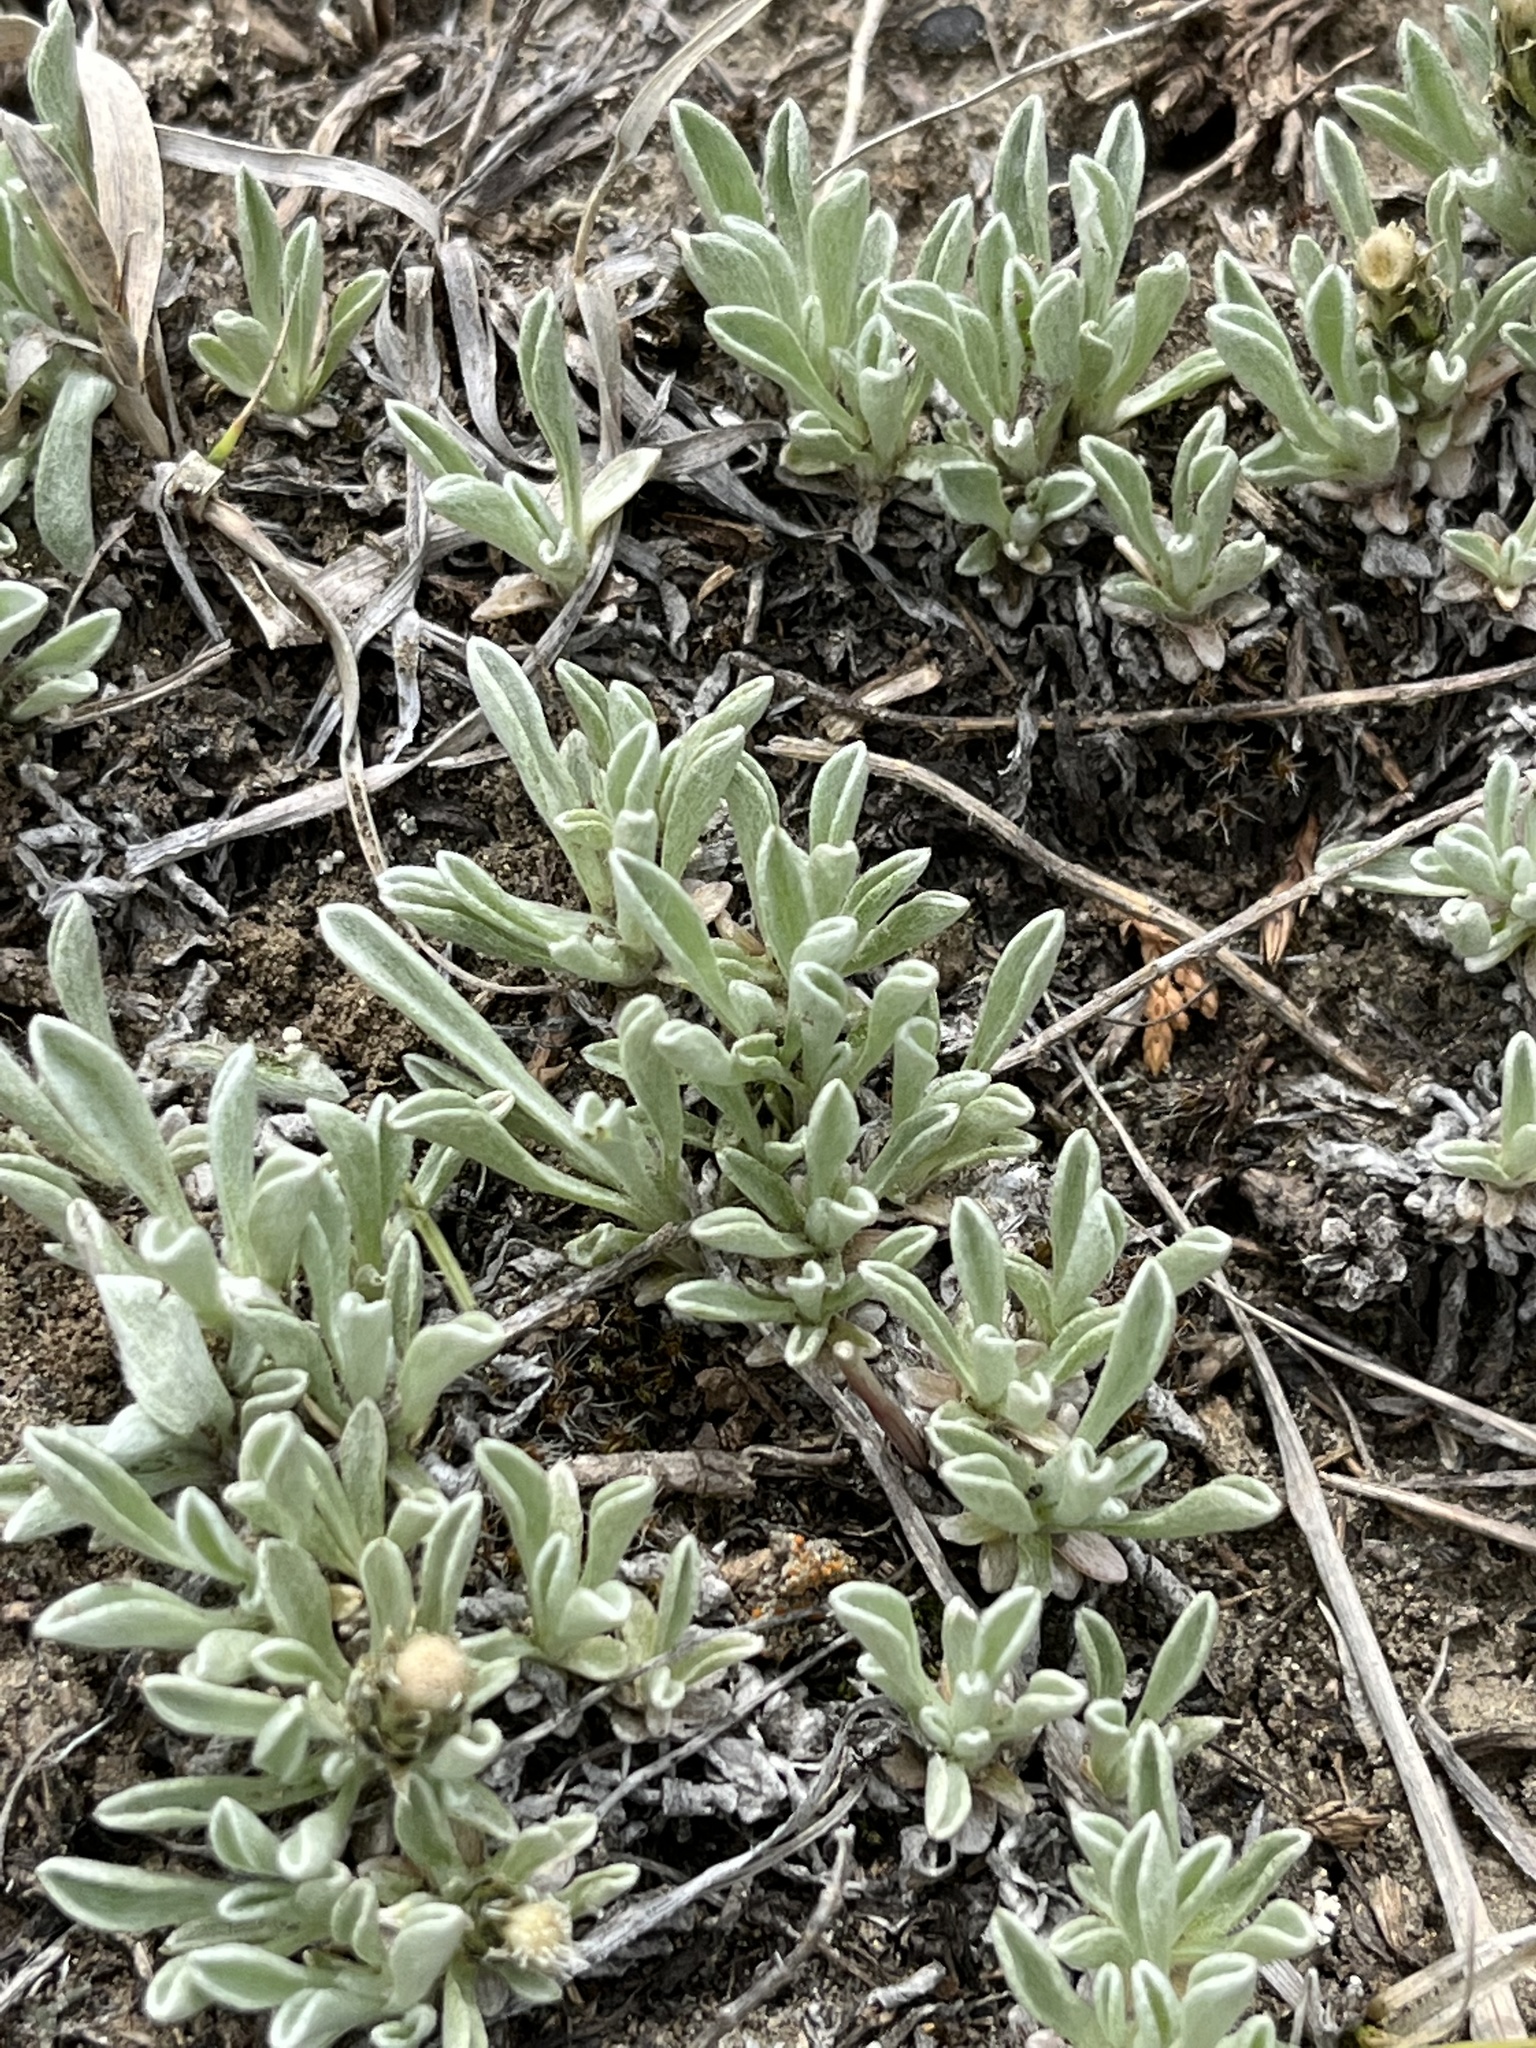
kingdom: Plantae
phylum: Tracheophyta
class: Magnoliopsida
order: Asterales
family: Asteraceae
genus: Antennaria
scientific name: Antennaria dimorpha
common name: Cushion pussytoes
